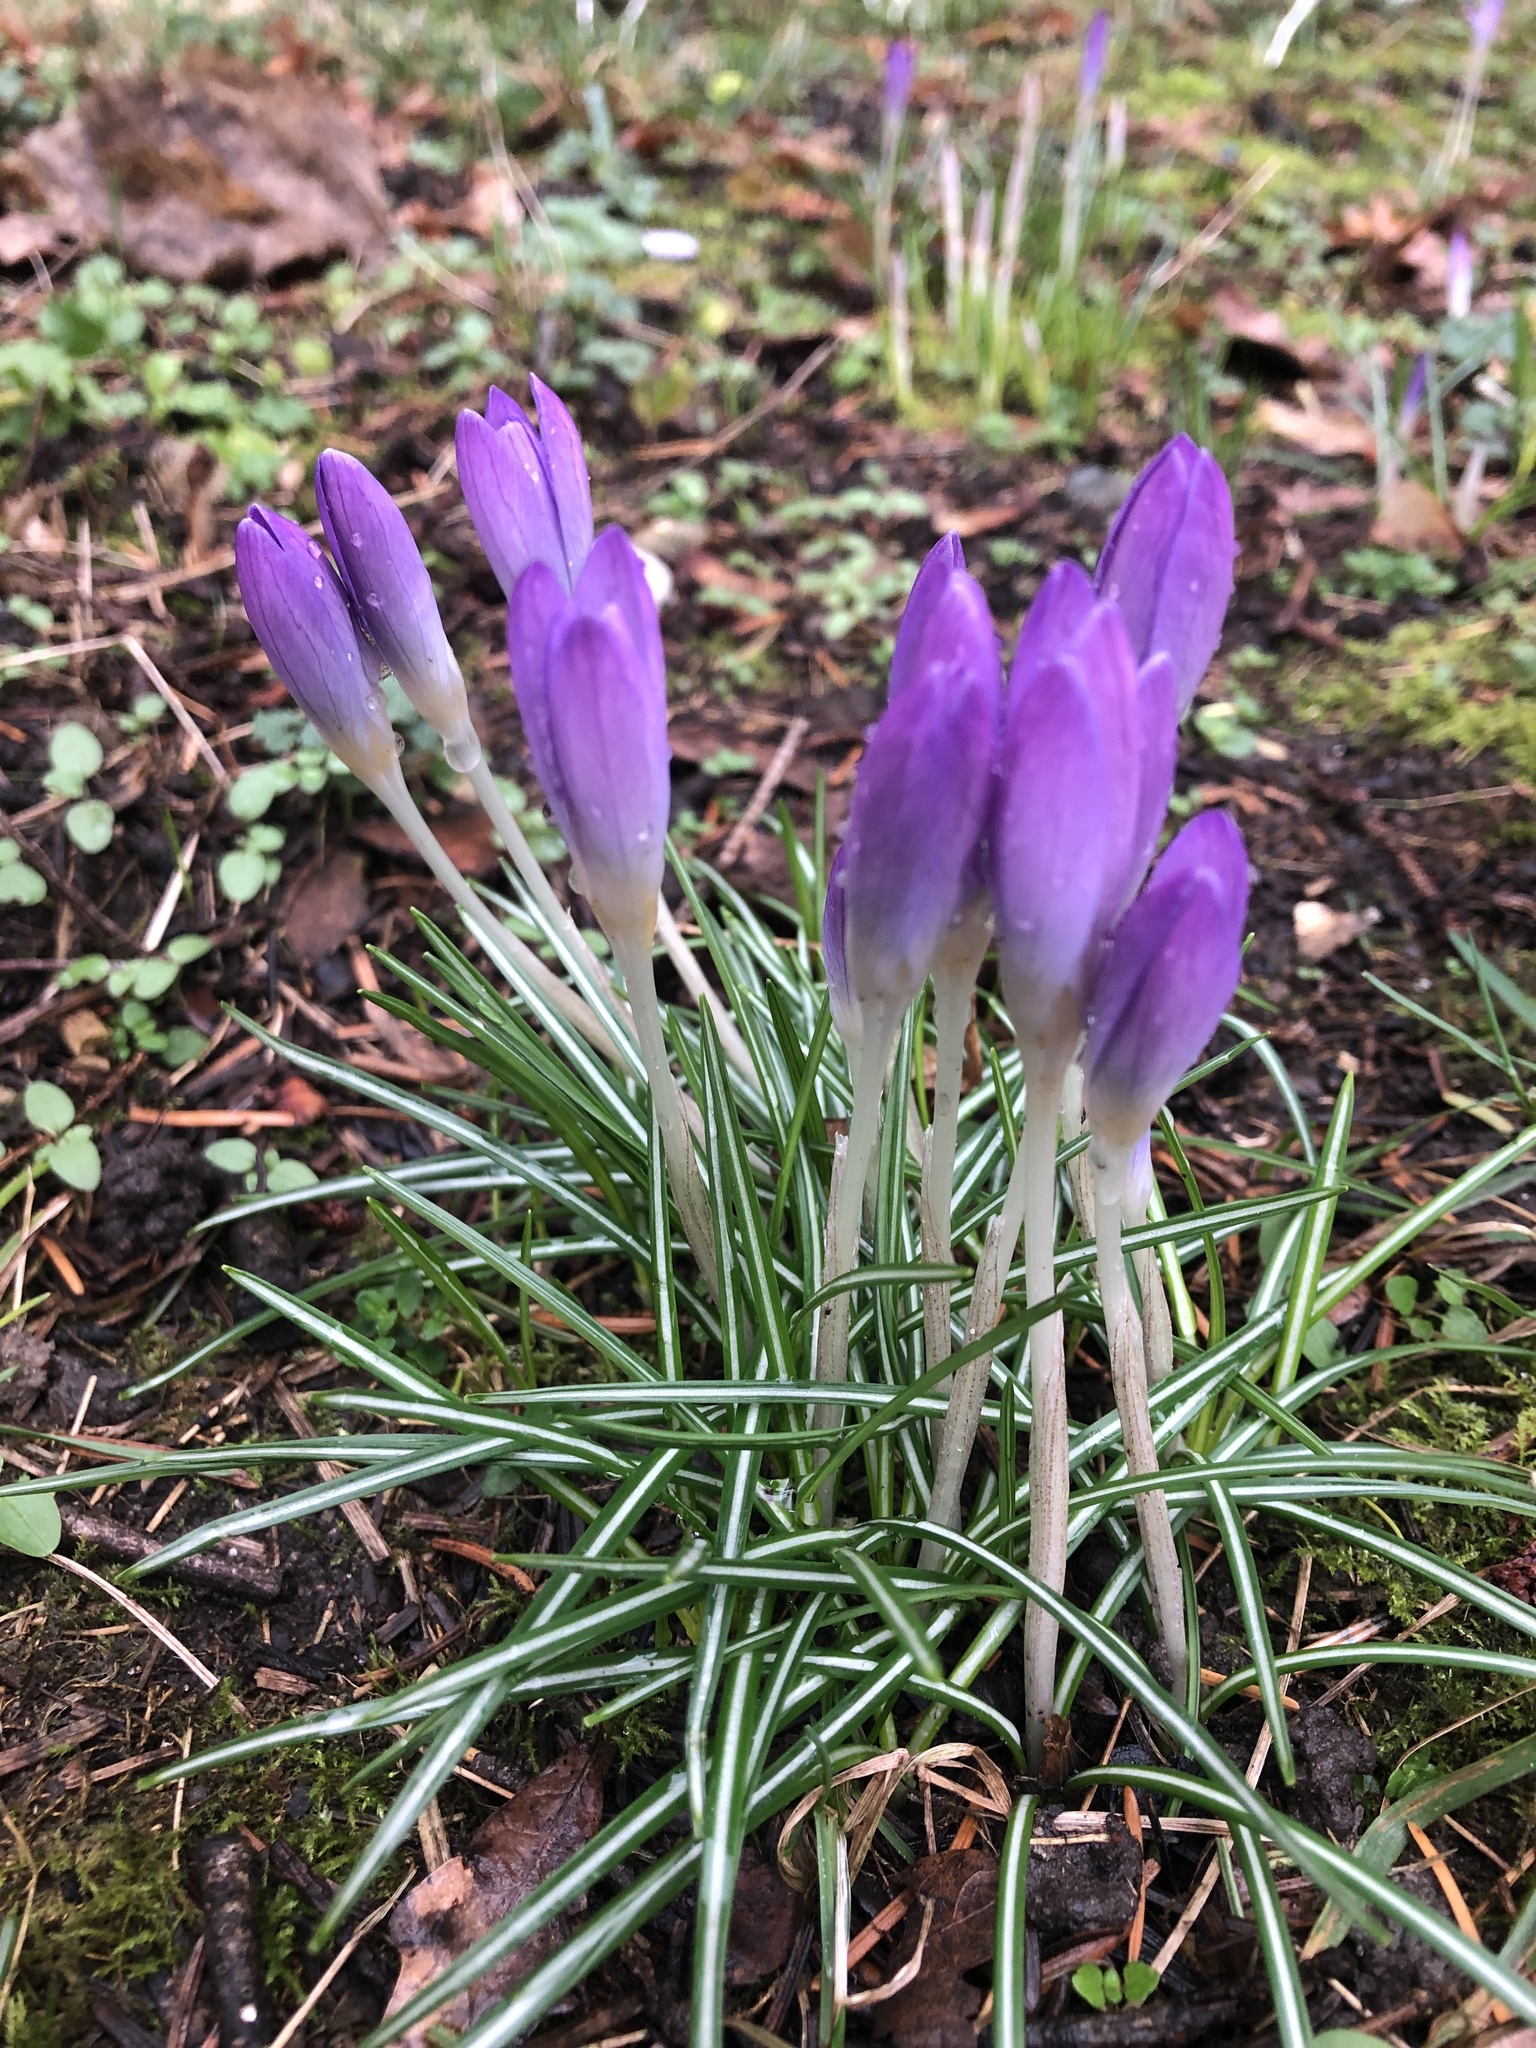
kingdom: Plantae
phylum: Tracheophyta
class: Liliopsida
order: Asparagales
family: Iridaceae
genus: Crocus
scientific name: Crocus tommasinianus
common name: Early crocus
